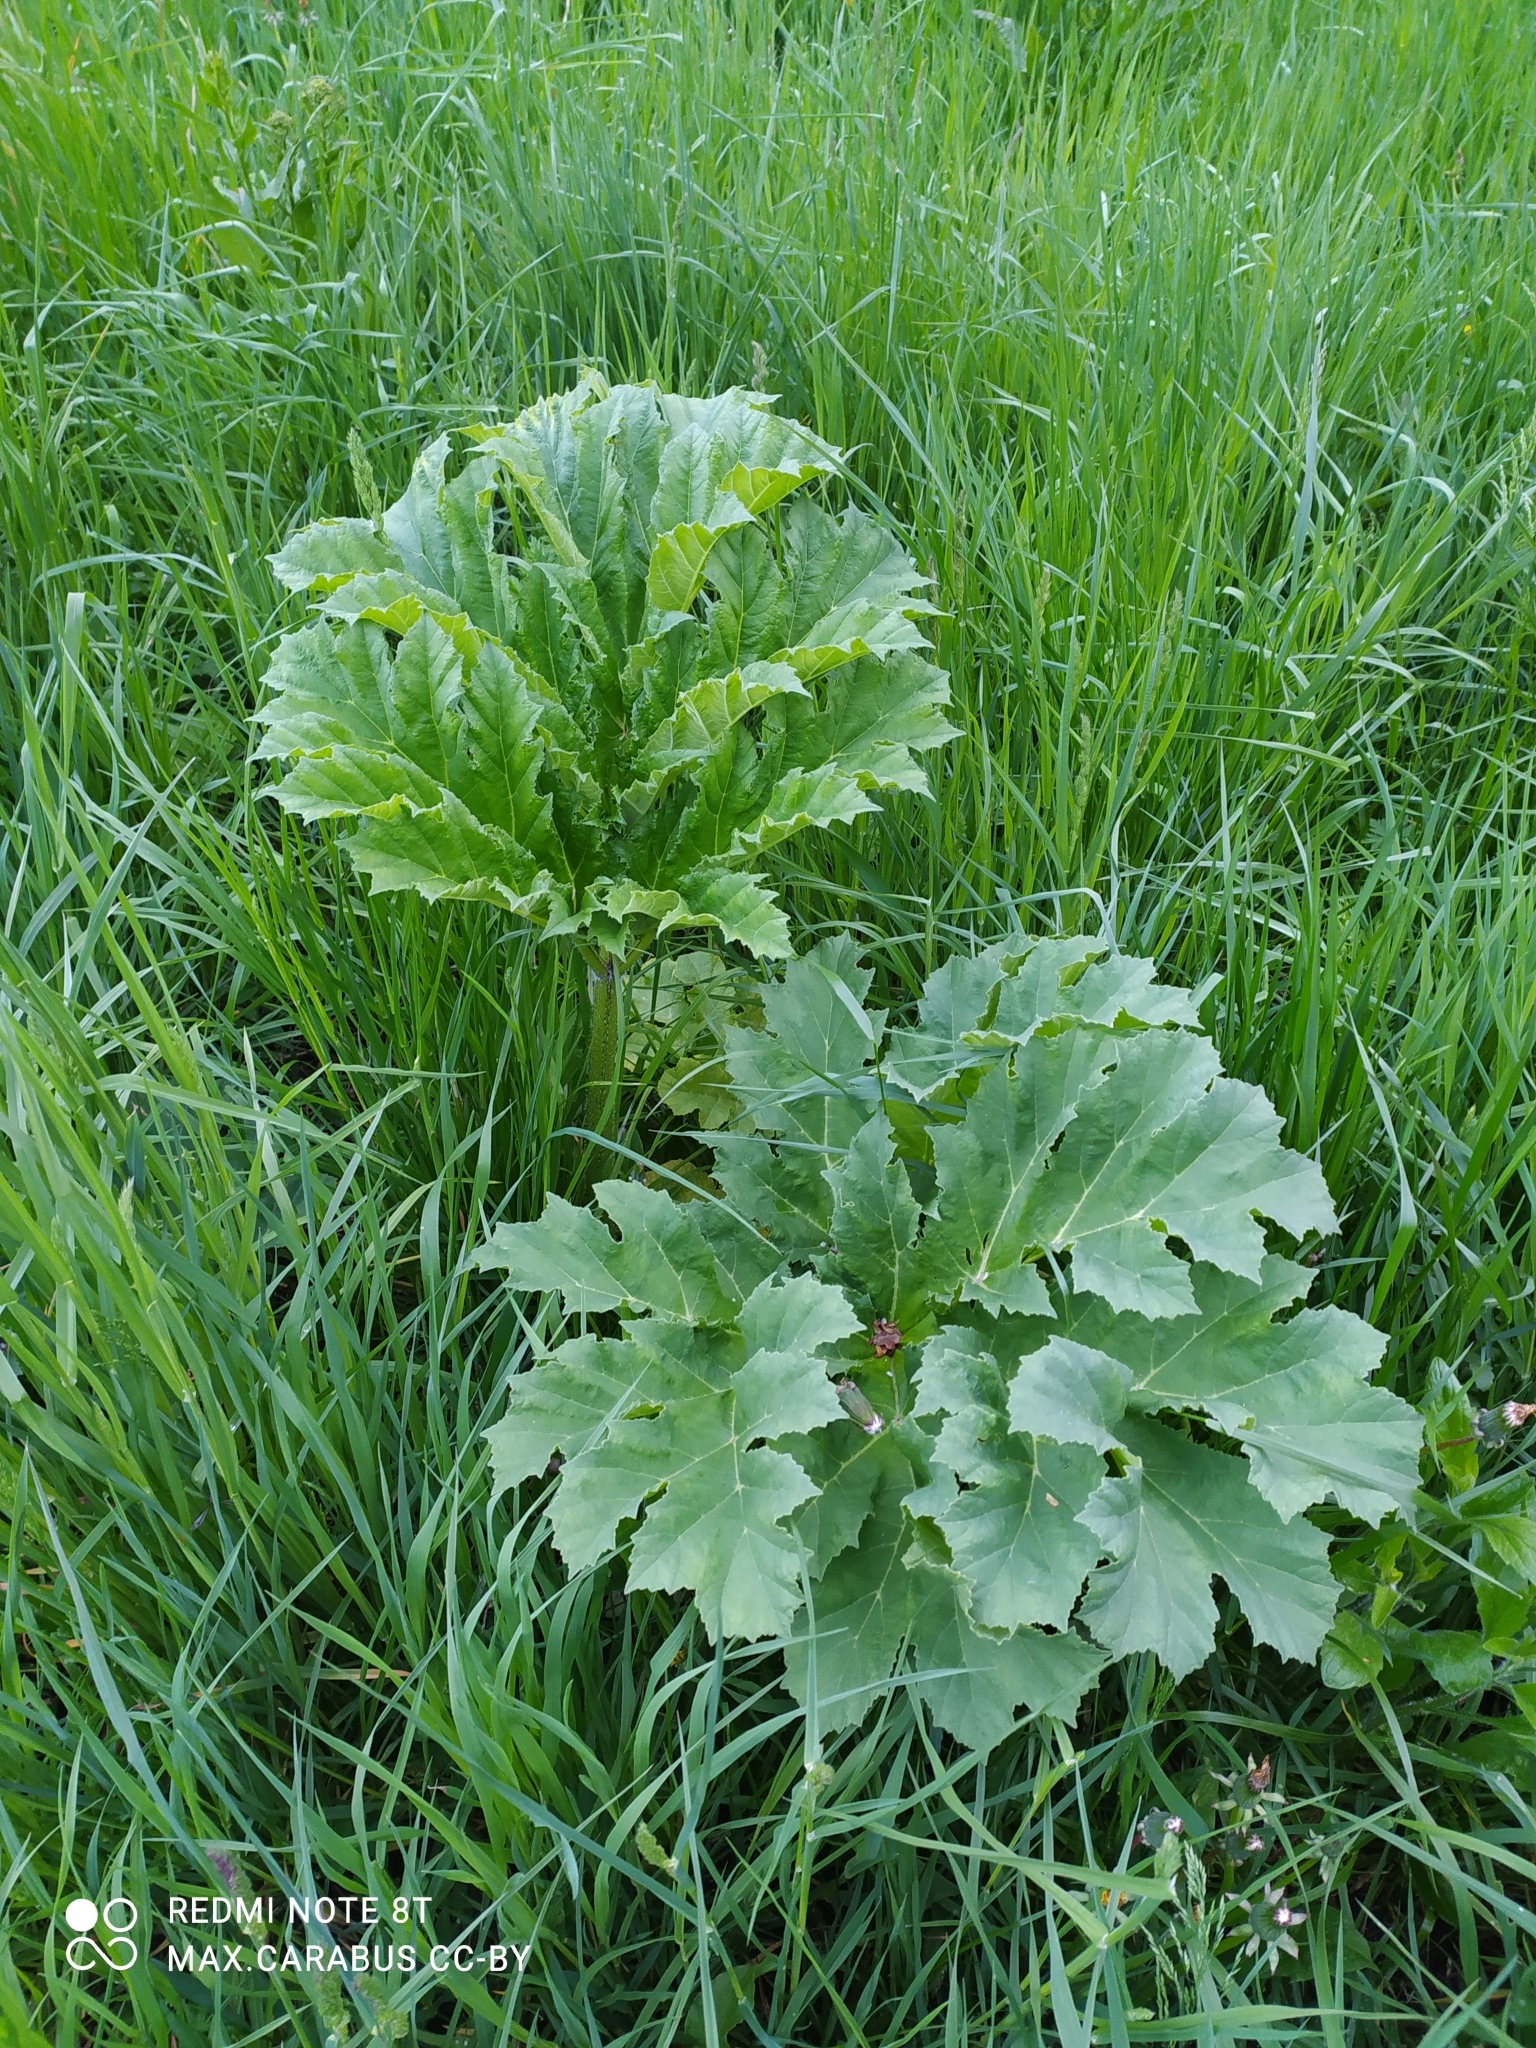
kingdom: Plantae
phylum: Tracheophyta
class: Magnoliopsida
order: Apiales
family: Apiaceae
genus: Heracleum
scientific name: Heracleum sosnowskyi
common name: Sosnowsky's hogweed
